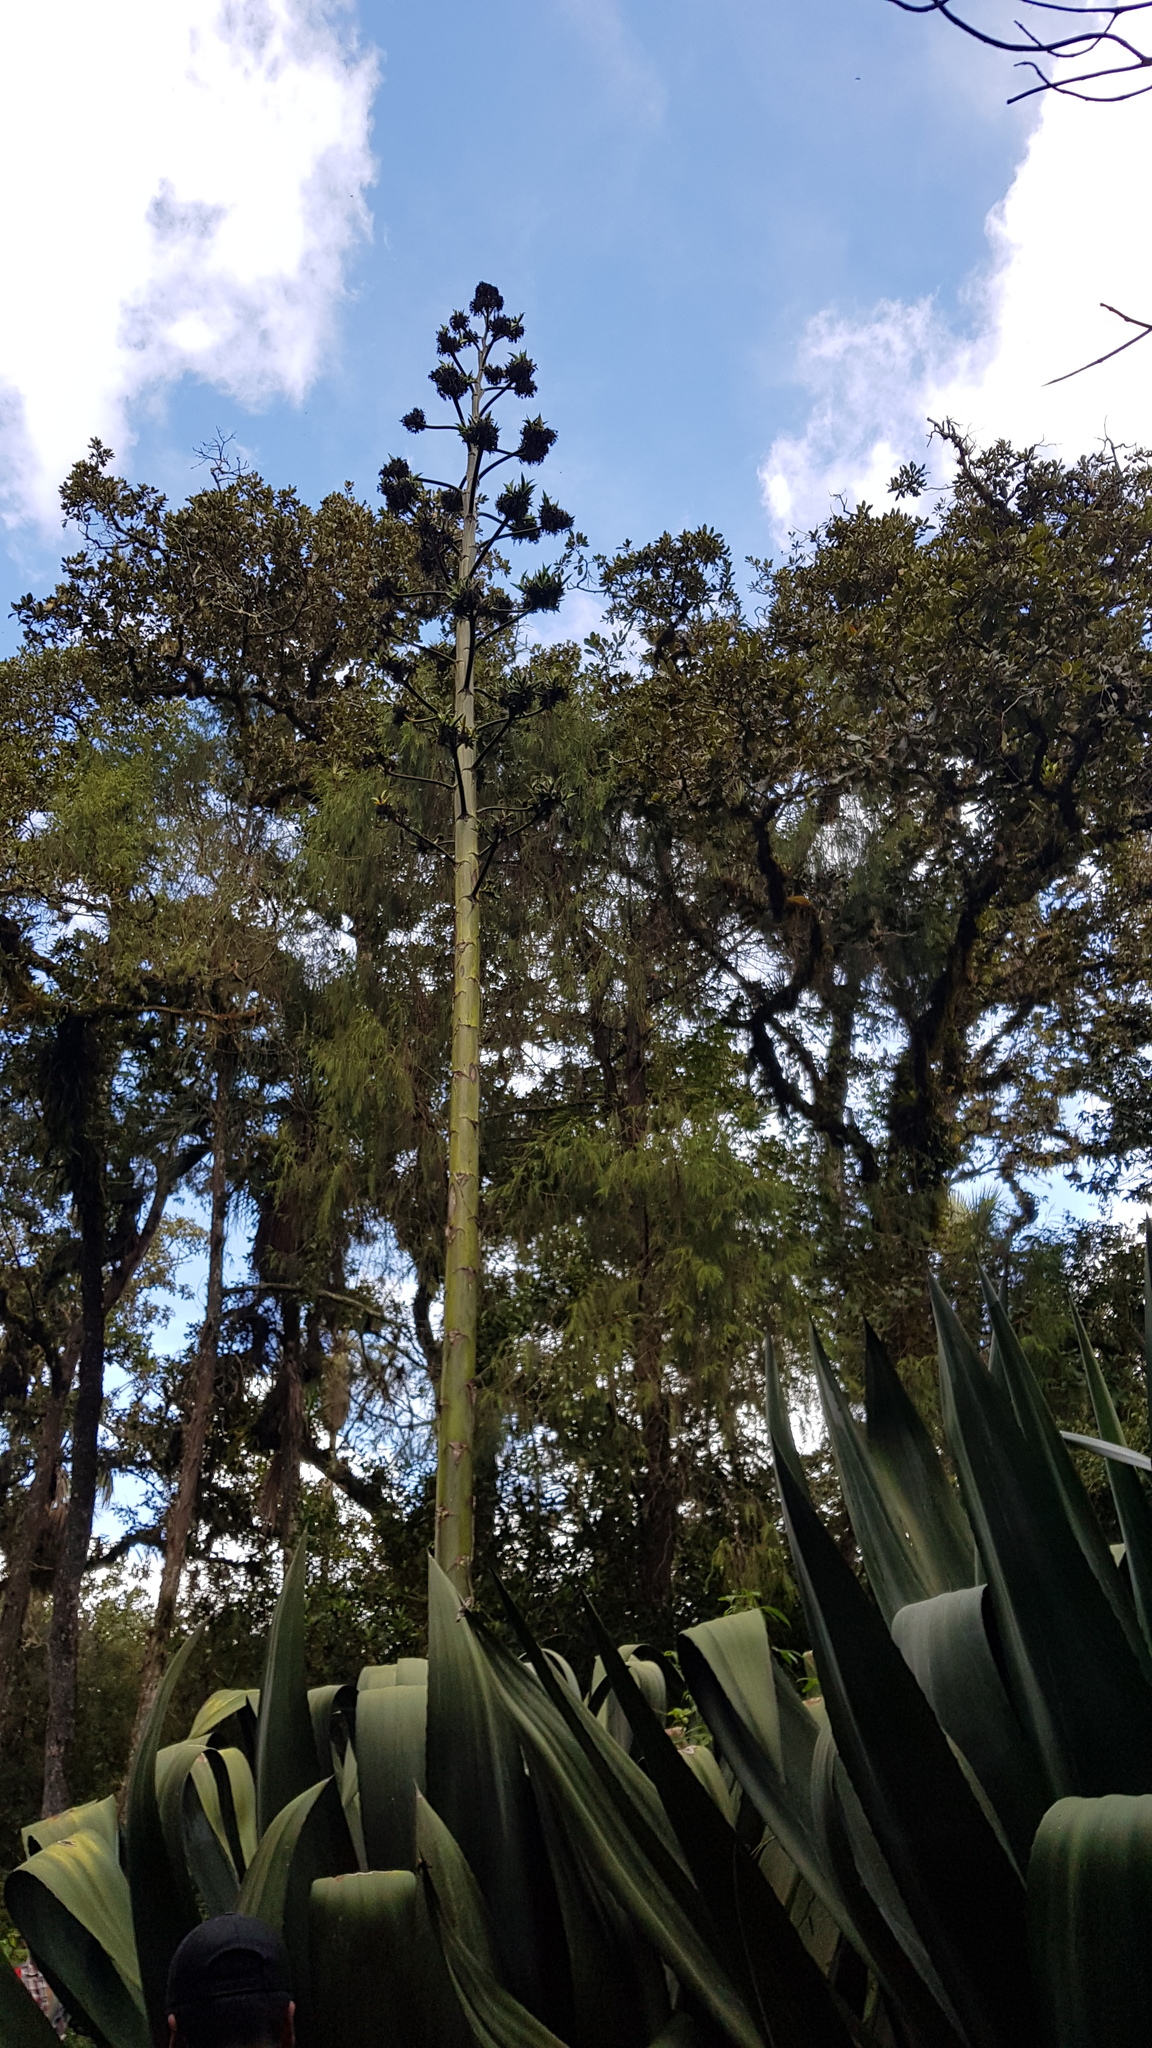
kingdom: Plantae
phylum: Tracheophyta
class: Liliopsida
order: Asparagales
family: Asparagaceae
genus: Agave
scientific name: Agave atrovirens
